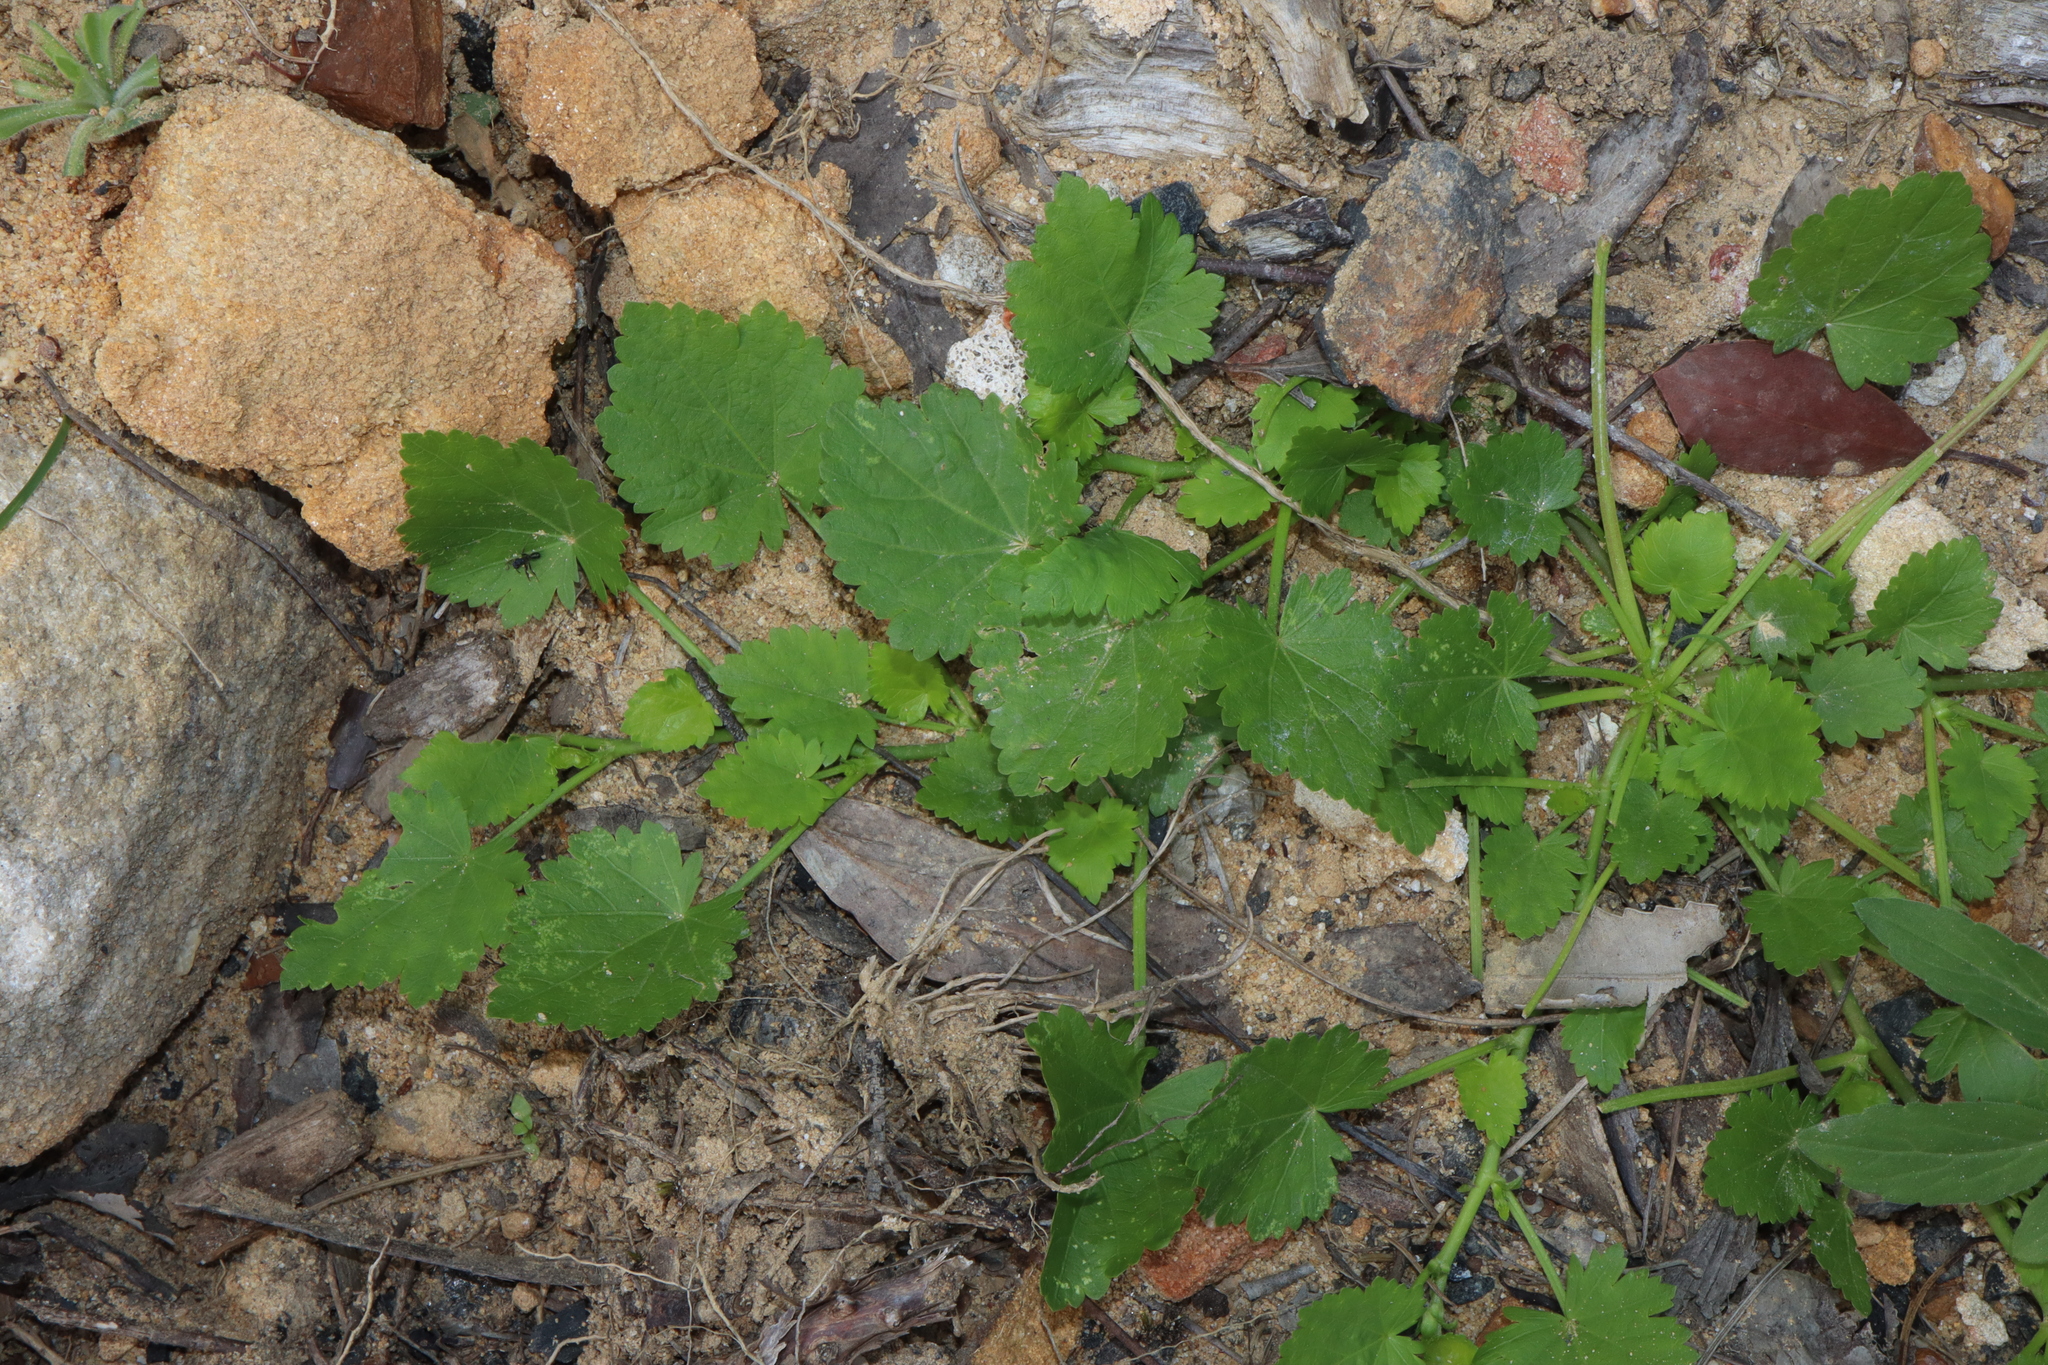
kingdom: Plantae
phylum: Tracheophyta
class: Magnoliopsida
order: Malvales
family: Malvaceae
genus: Modiola
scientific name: Modiola caroliniana
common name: Carolina bristlemallow
